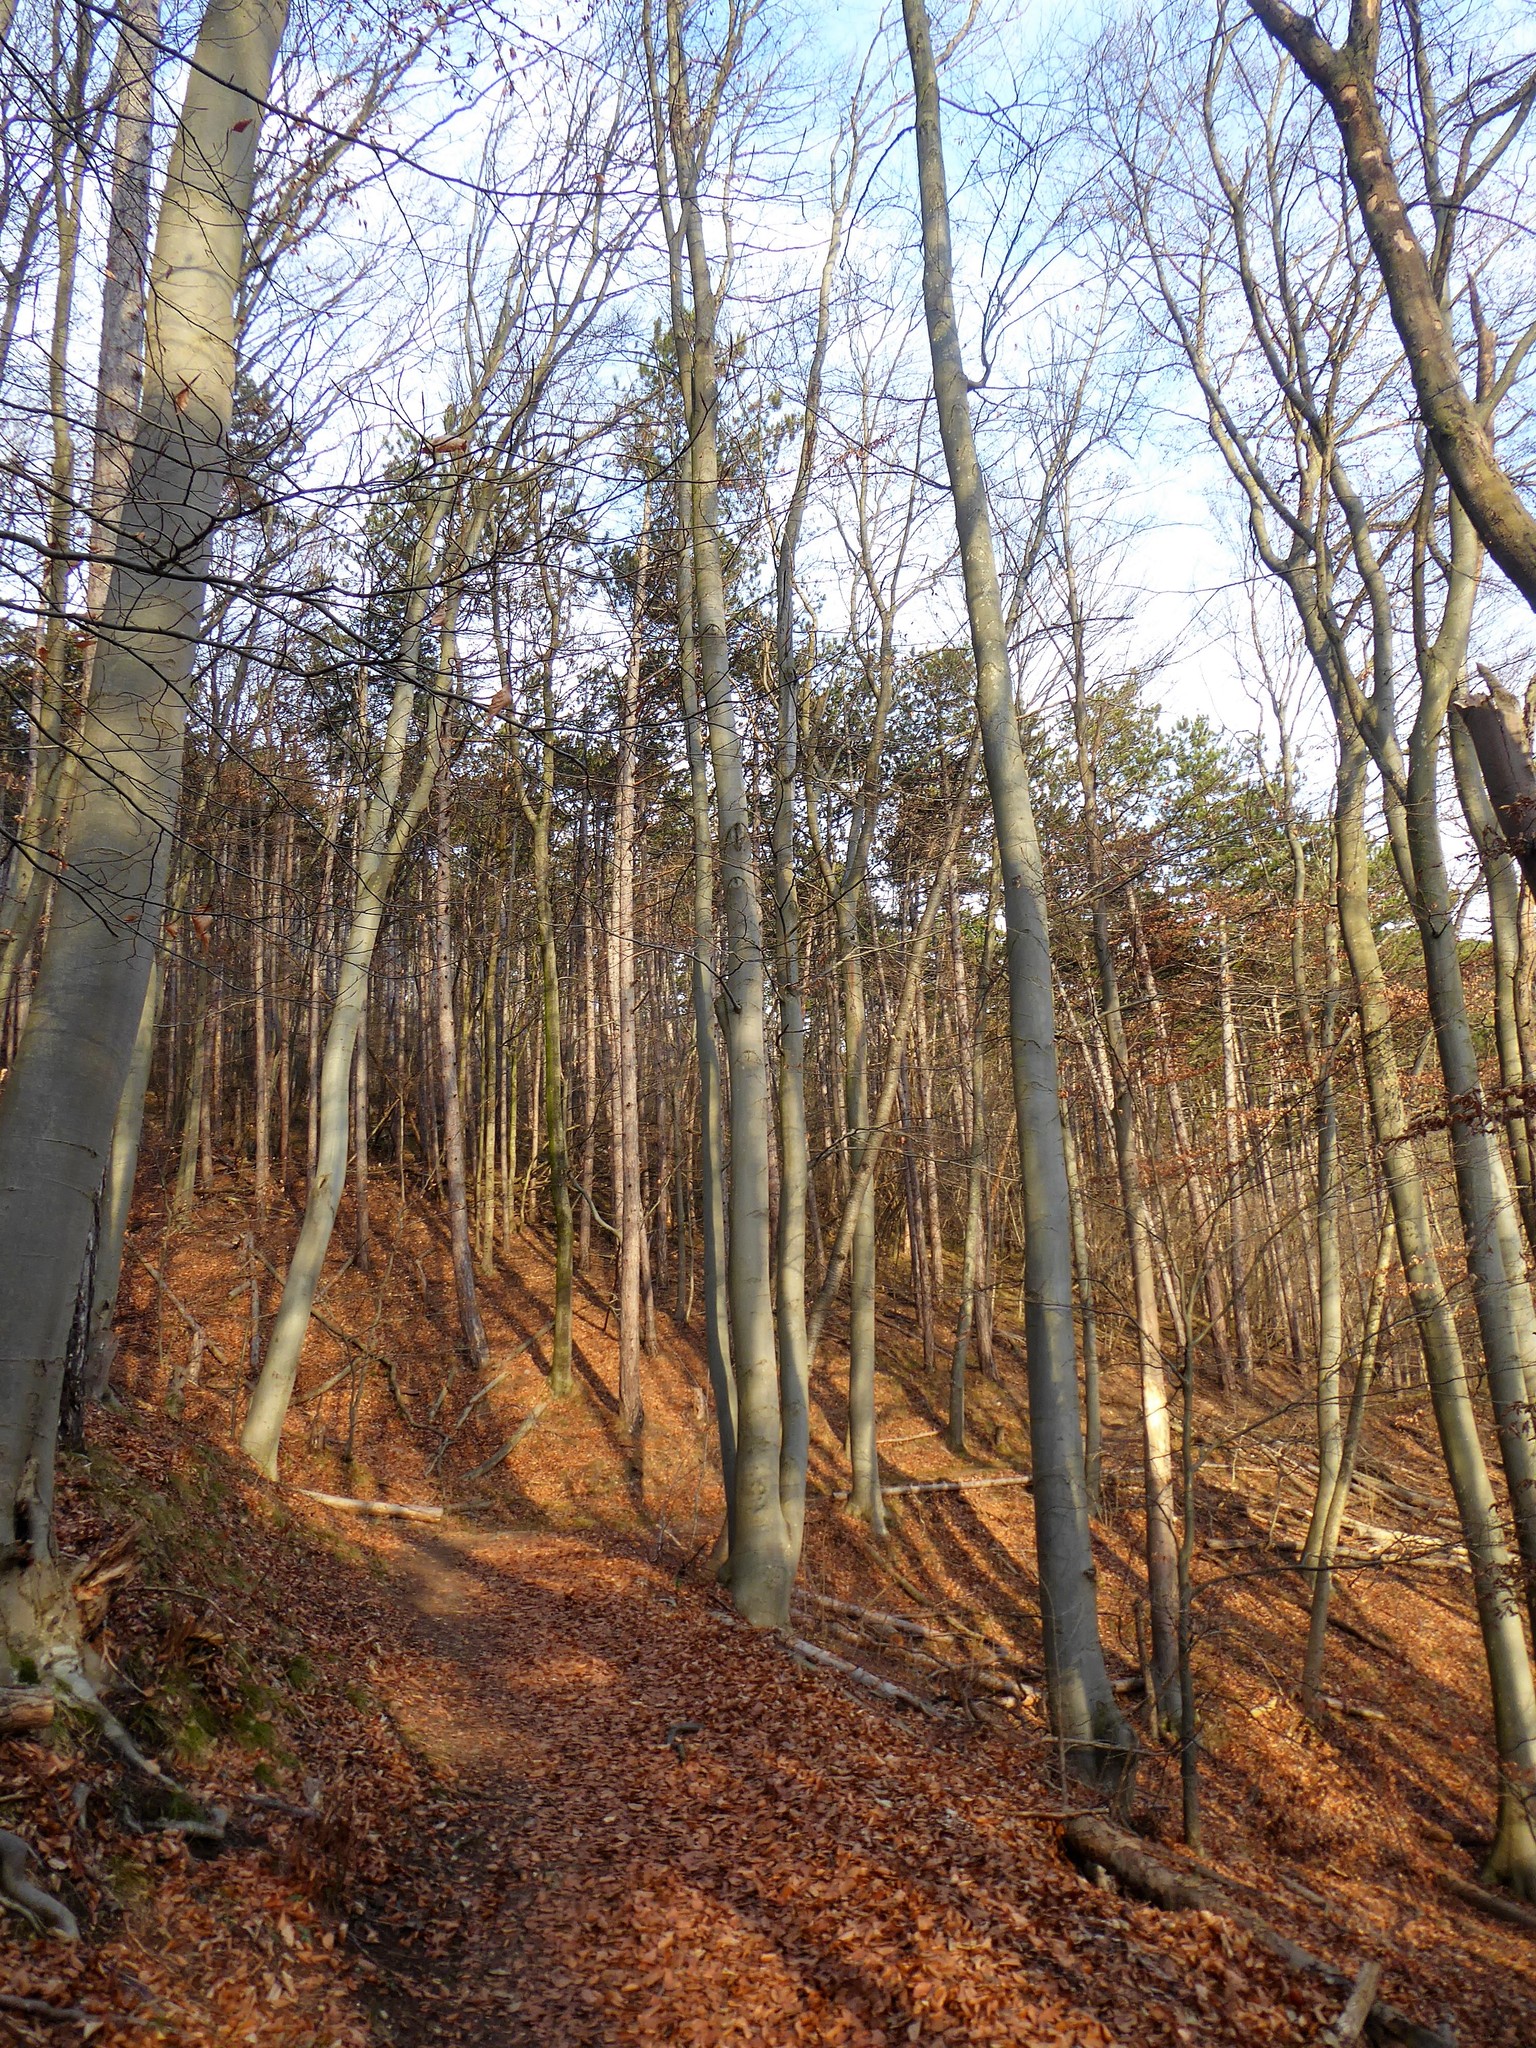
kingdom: Plantae
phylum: Tracheophyta
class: Magnoliopsida
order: Fagales
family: Fagaceae
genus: Fagus
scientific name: Fagus sylvatica
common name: Beech
